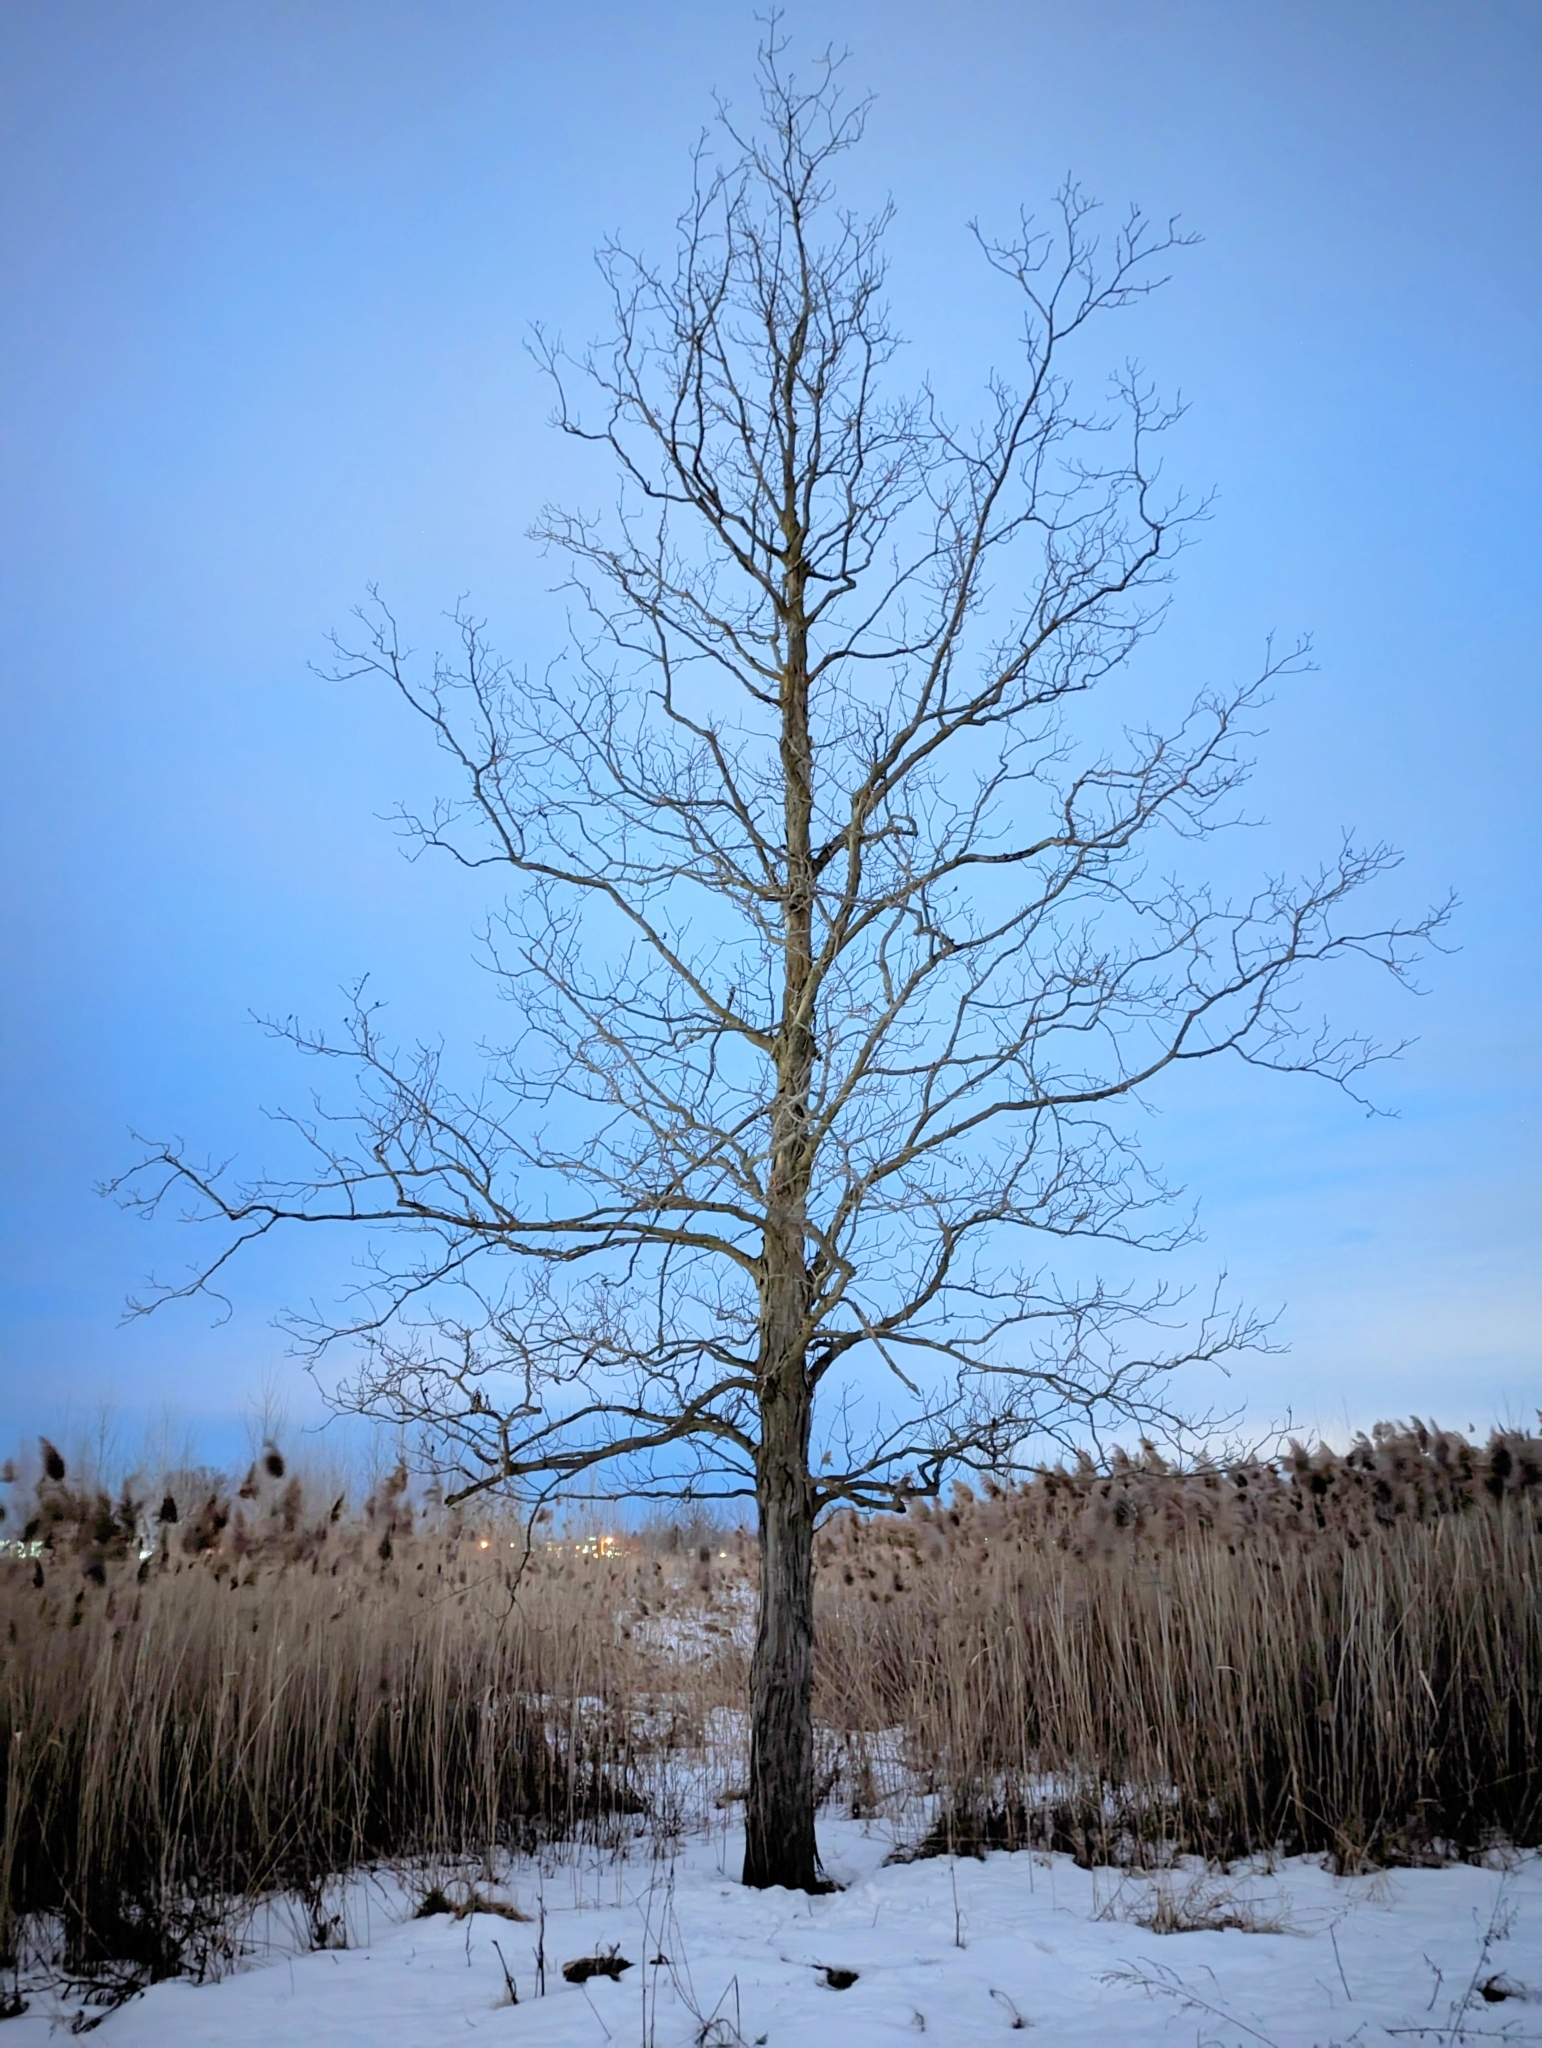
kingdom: Plantae
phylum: Tracheophyta
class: Magnoliopsida
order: Fagales
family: Juglandaceae
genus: Carya
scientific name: Carya ovata
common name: Shagbark hickory
